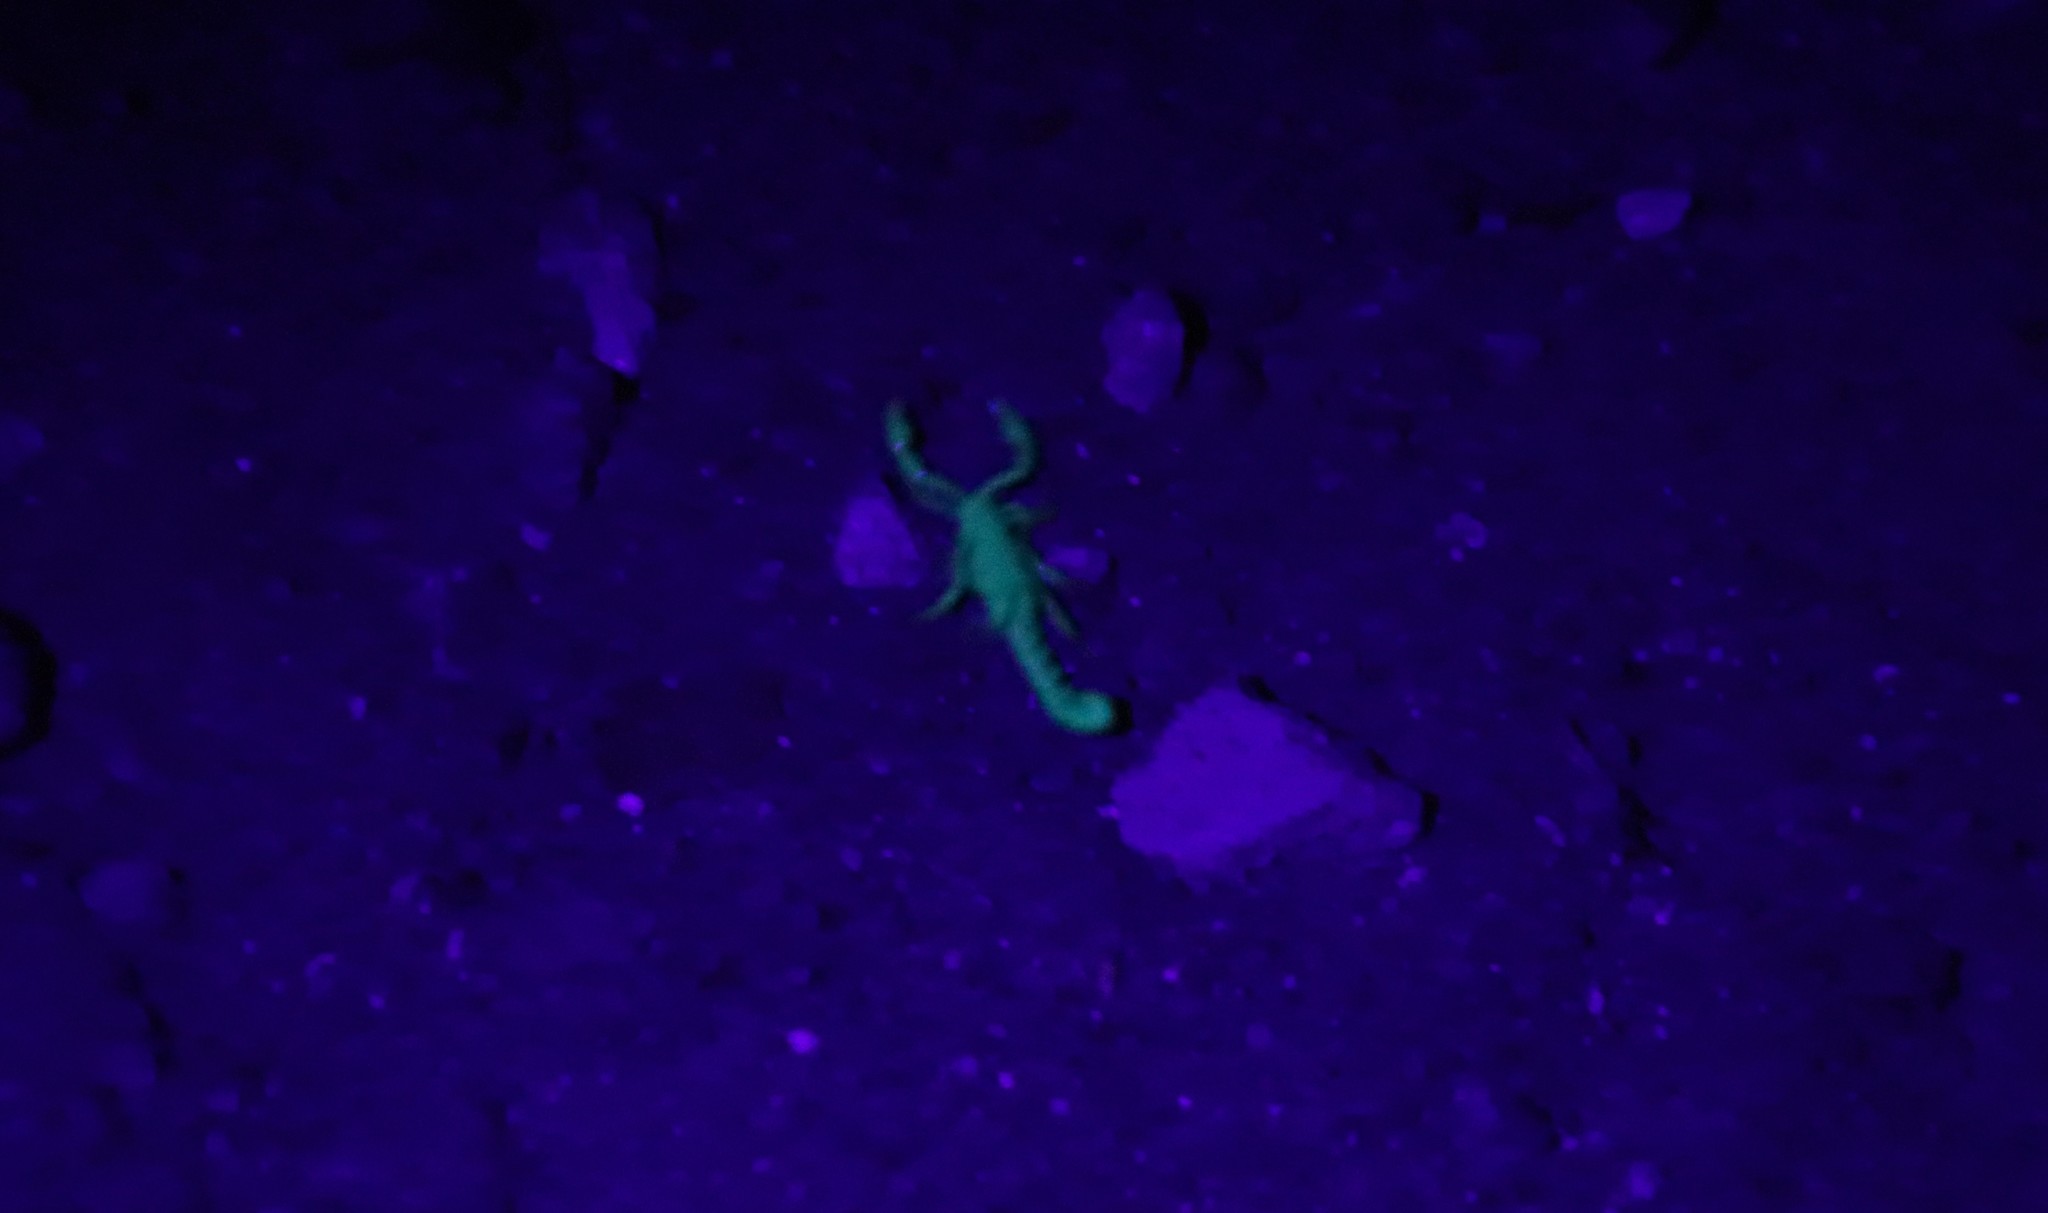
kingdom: Animalia
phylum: Arthropoda
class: Arachnida
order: Scorpiones
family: Superstitioniidae
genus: Superstitionia
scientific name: Superstitionia donensis
